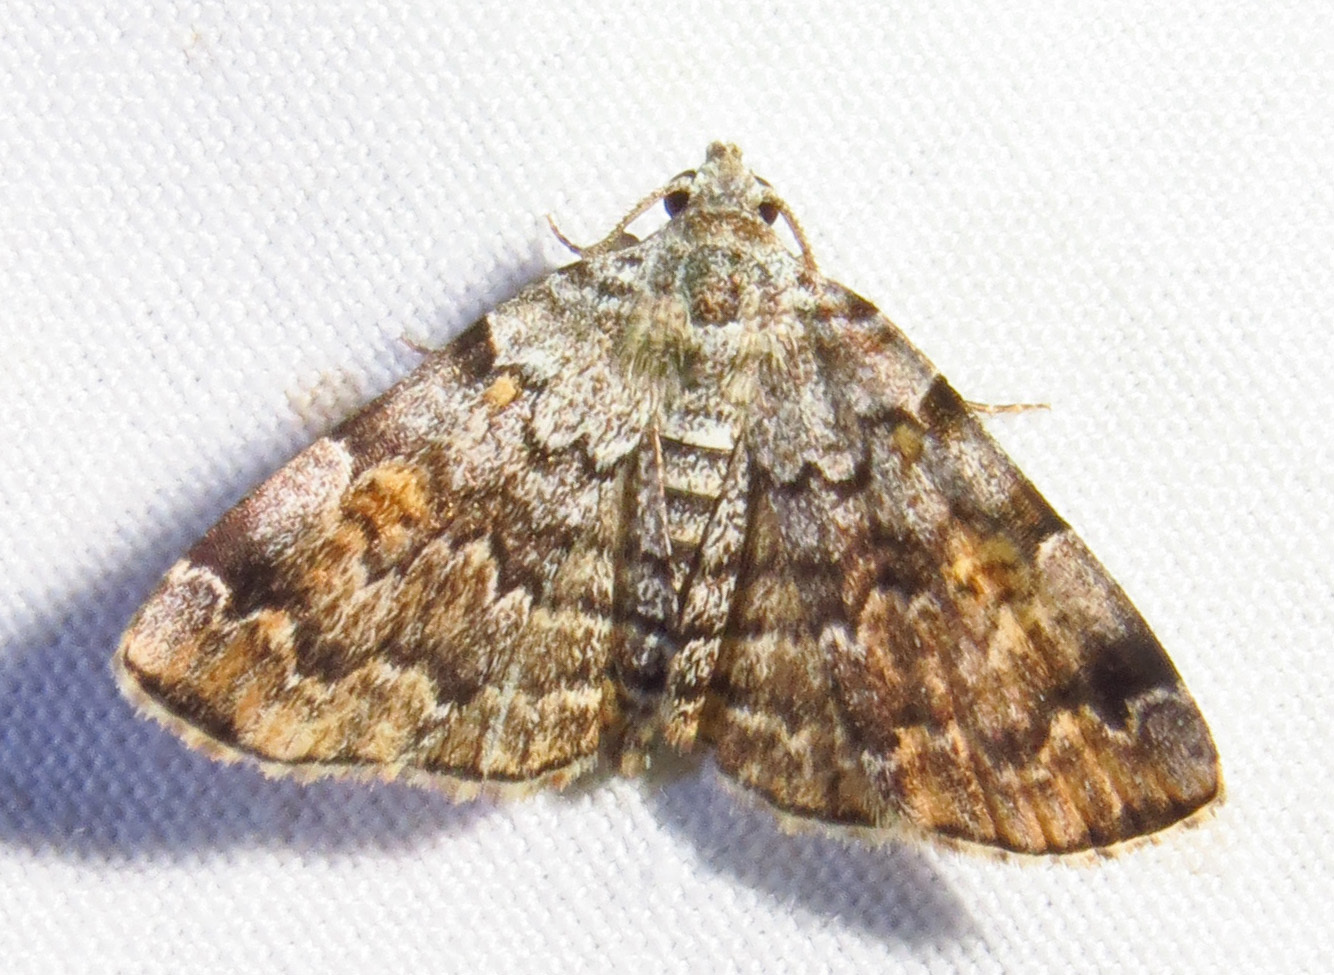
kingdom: Animalia
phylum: Arthropoda
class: Insecta
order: Lepidoptera
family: Erebidae
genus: Idia
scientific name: Idia americalis
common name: American idia moth
